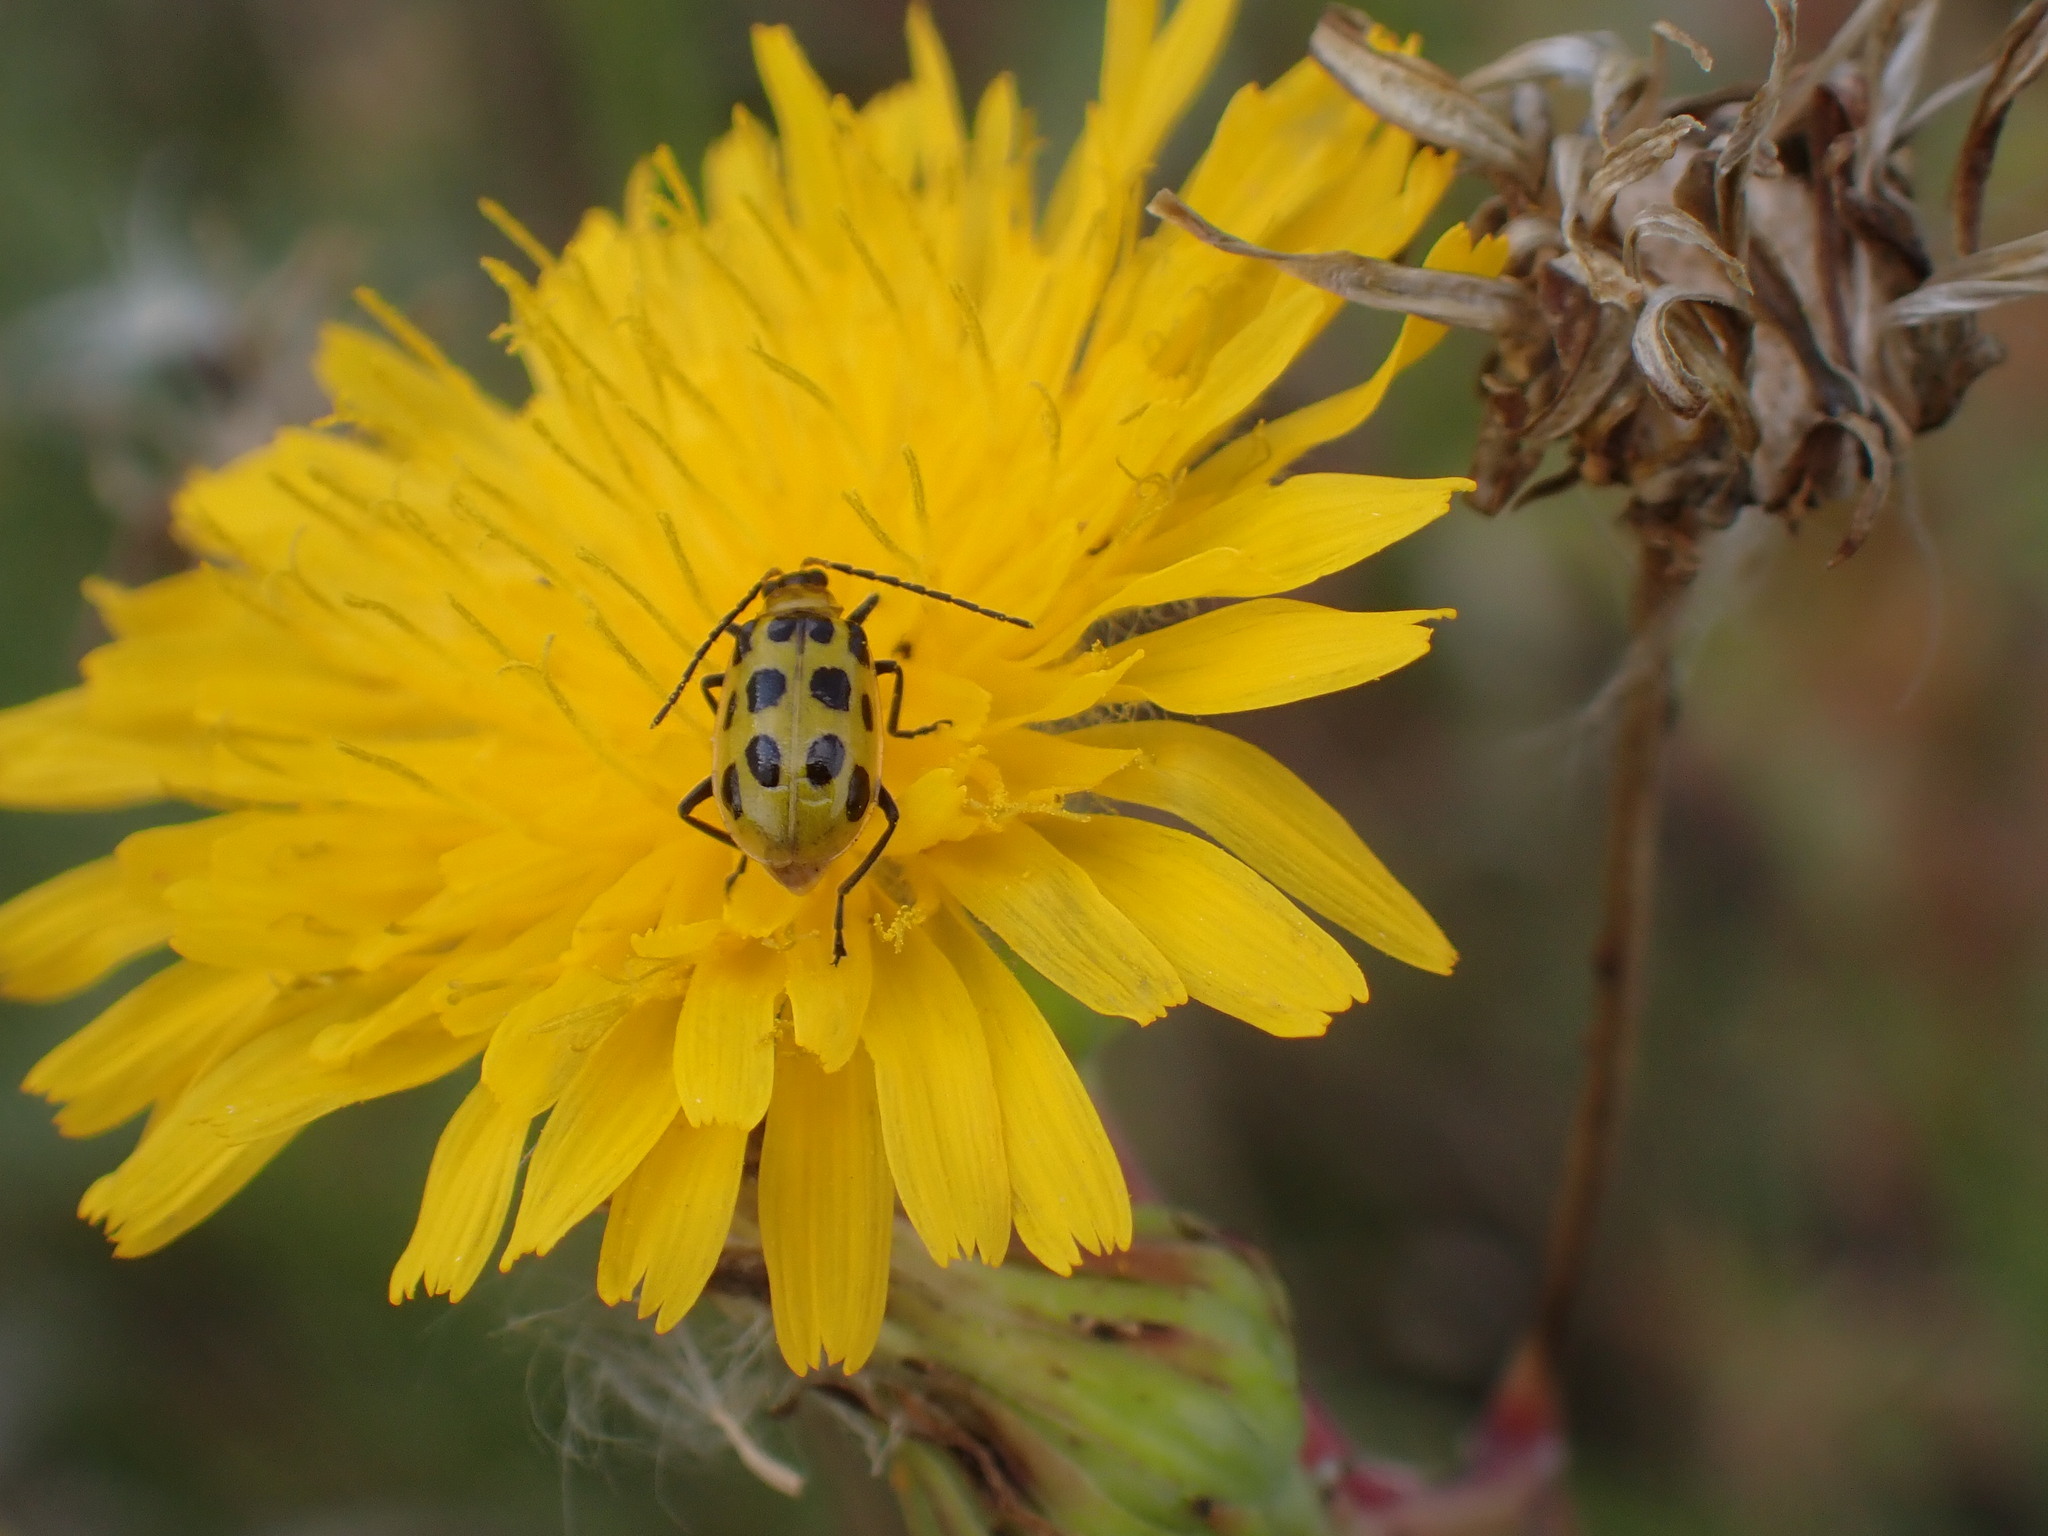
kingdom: Animalia
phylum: Arthropoda
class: Insecta
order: Coleoptera
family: Chrysomelidae
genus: Diabrotica
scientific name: Diabrotica undecimpunctata
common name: Spotted cucumber beetle
